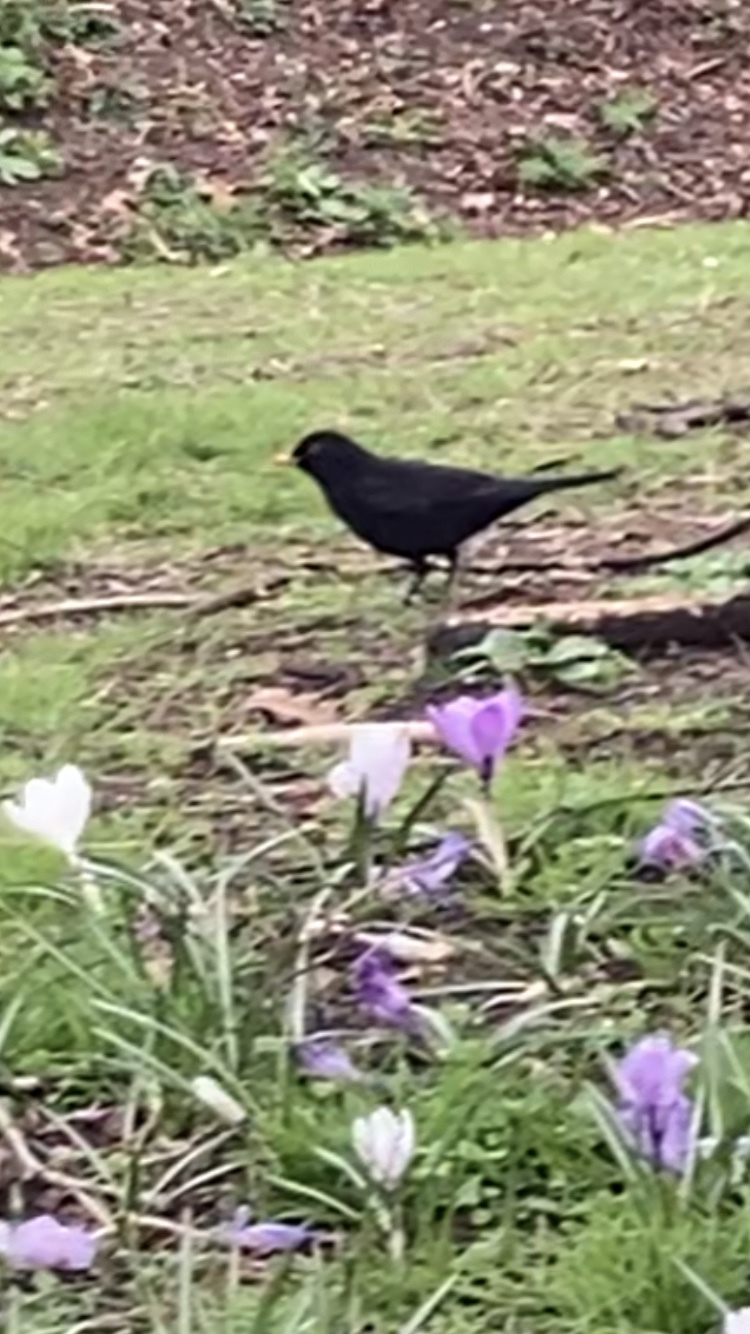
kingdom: Animalia
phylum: Chordata
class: Aves
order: Passeriformes
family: Turdidae
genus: Turdus
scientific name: Turdus merula
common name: Common blackbird
